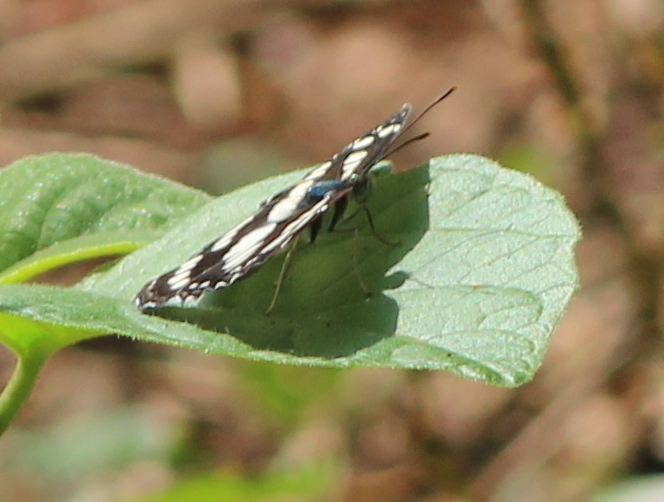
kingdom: Animalia
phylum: Arthropoda
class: Insecta
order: Lepidoptera
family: Nymphalidae
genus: Neptis
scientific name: Neptis hylas
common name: Common sailer
